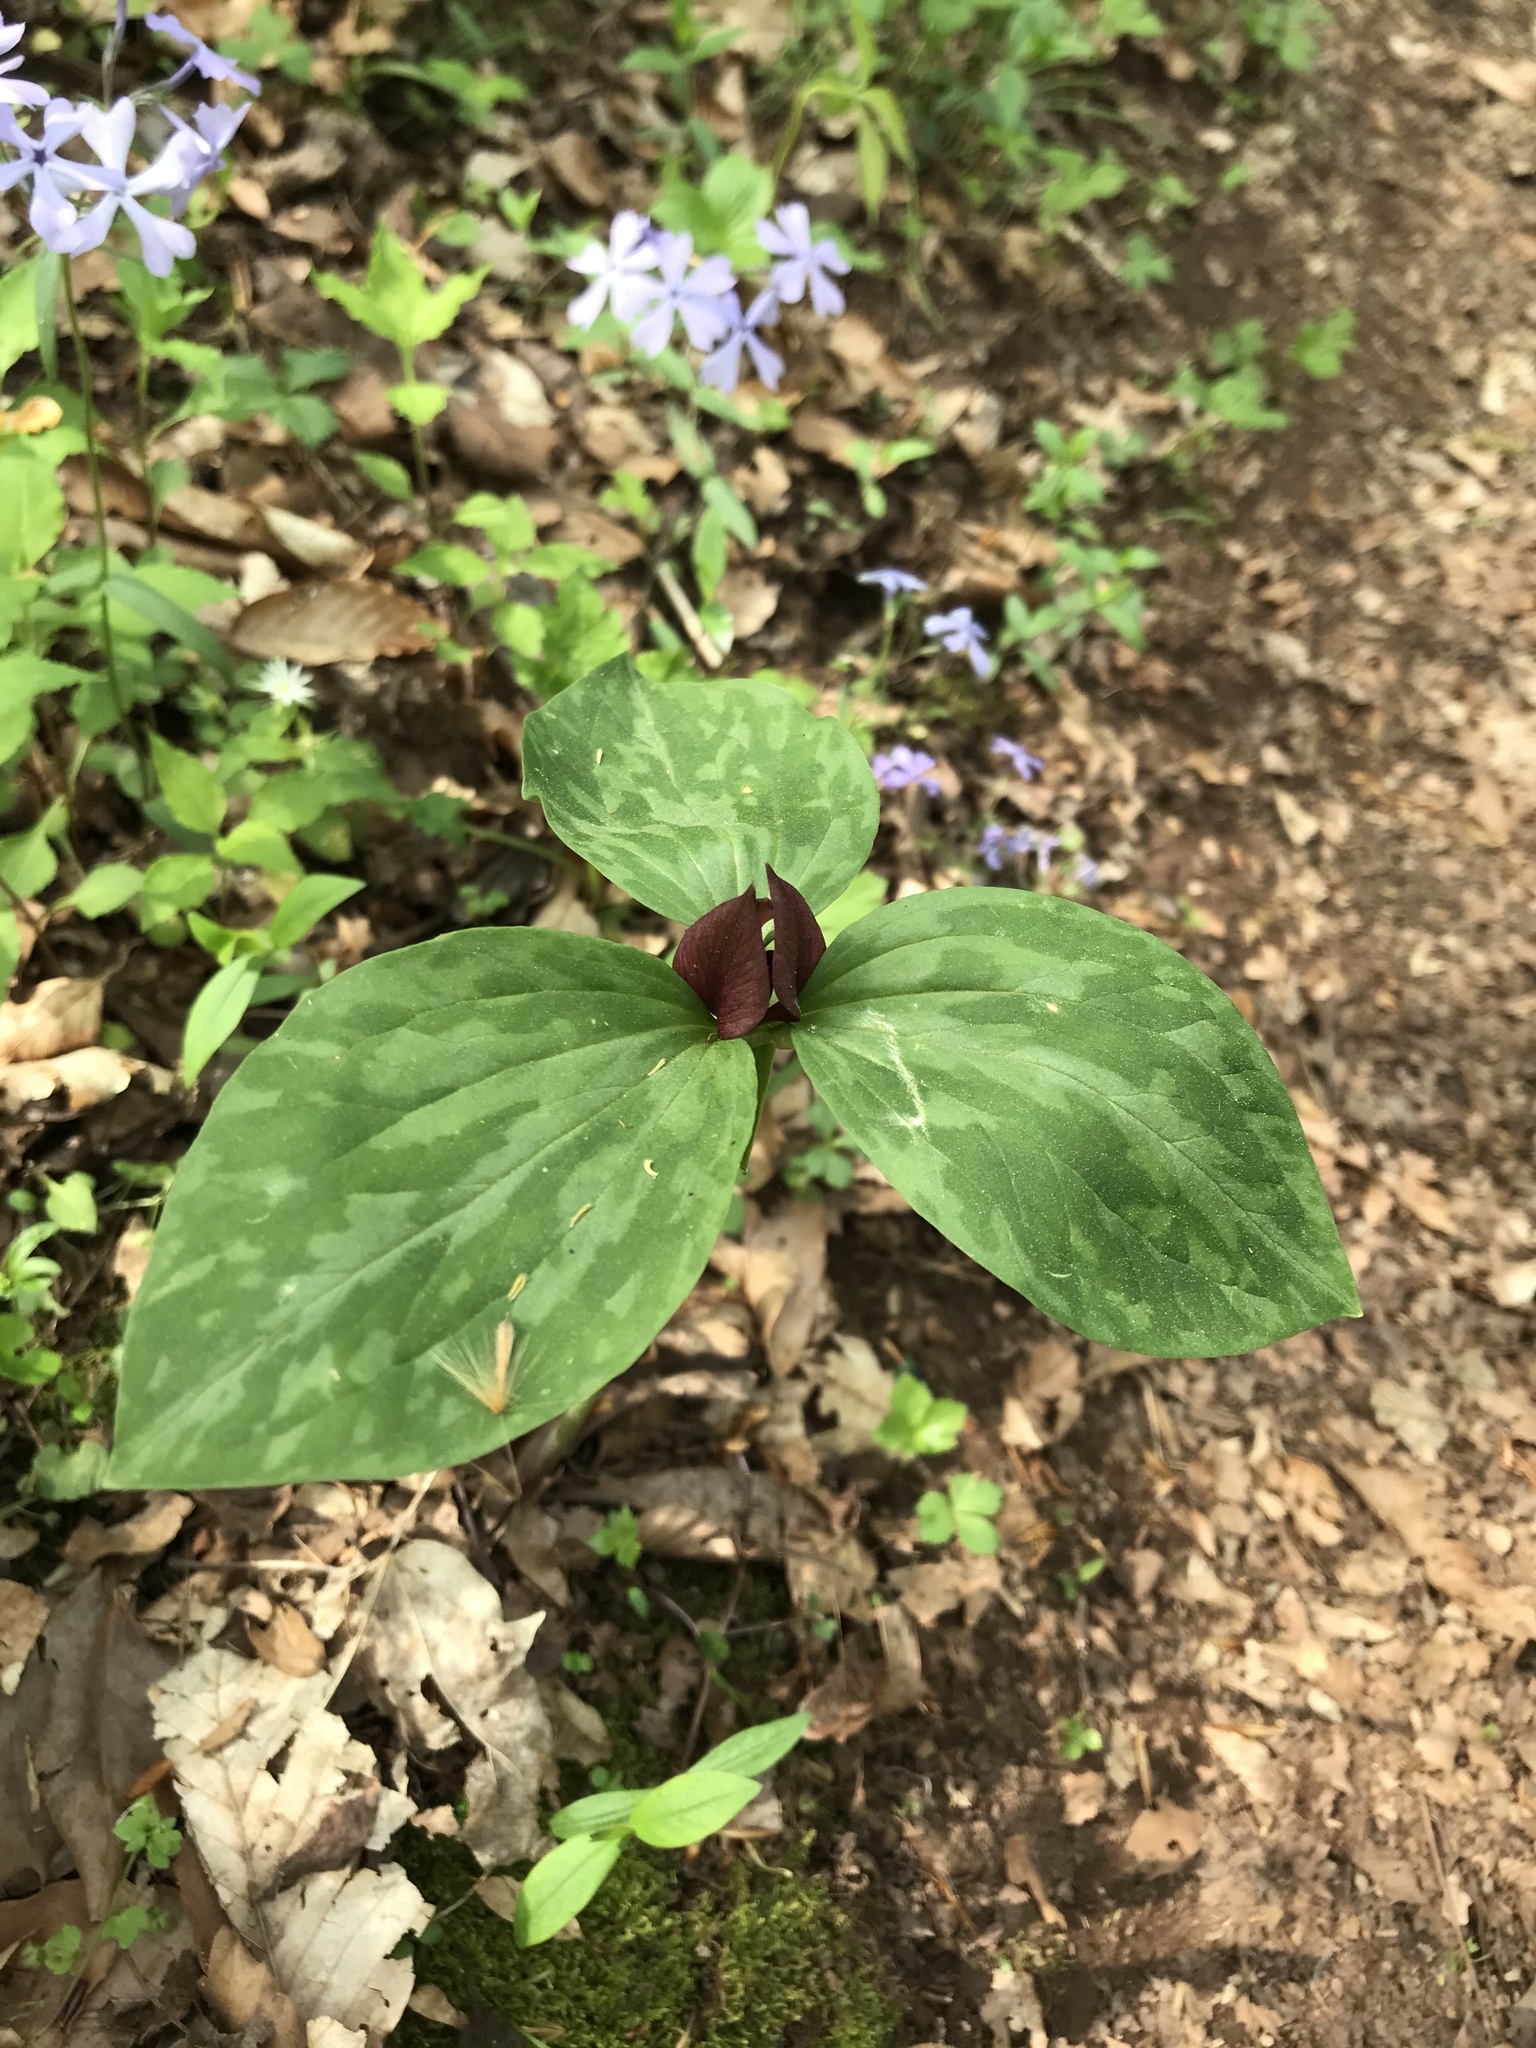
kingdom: Plantae
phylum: Tracheophyta
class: Liliopsida
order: Liliales
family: Melanthiaceae
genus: Trillium
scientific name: Trillium recurvatum
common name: Bloody butcher
